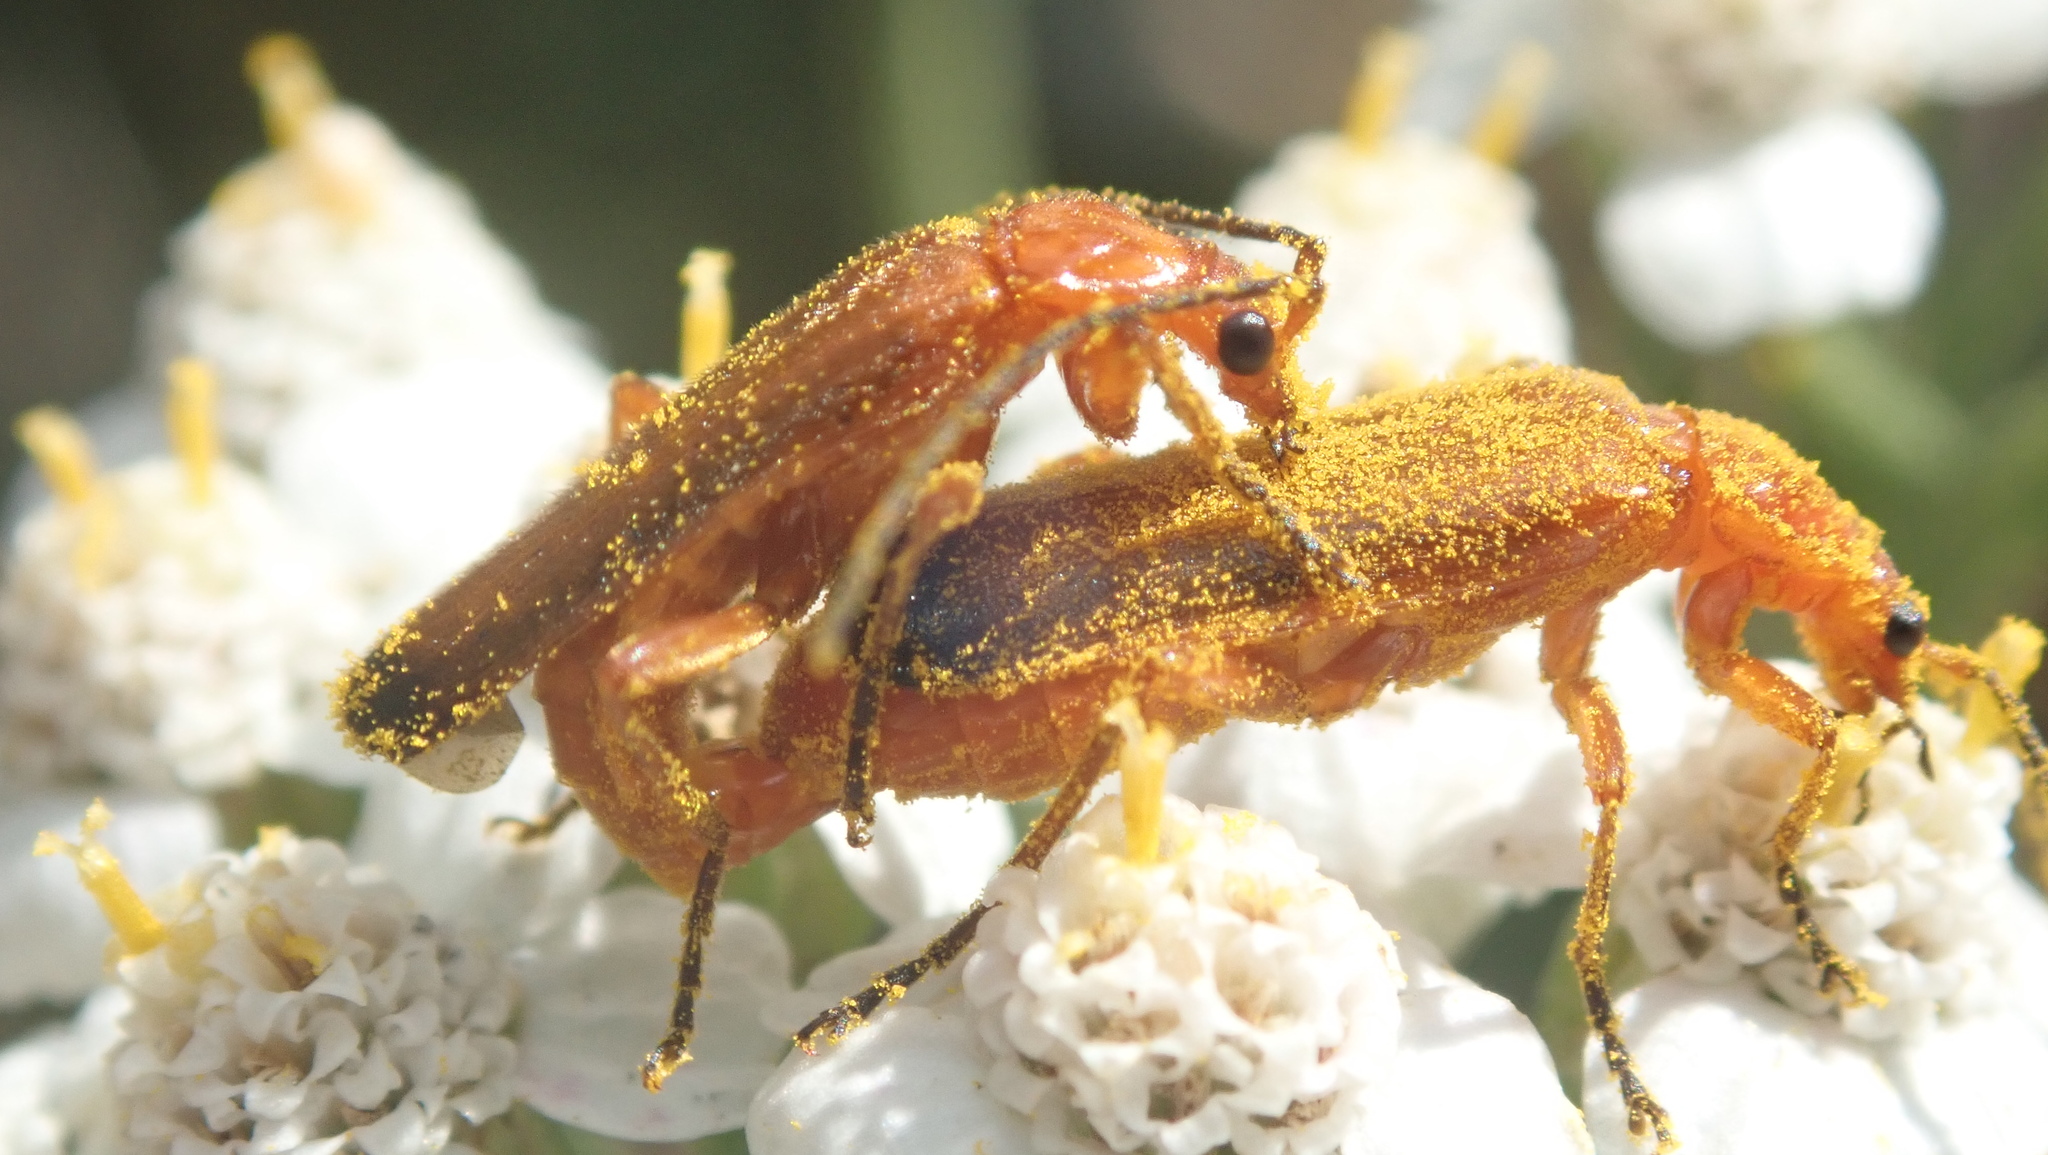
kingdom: Animalia
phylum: Arthropoda
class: Insecta
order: Coleoptera
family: Cantharidae
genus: Rhagonycha
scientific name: Rhagonycha fulva
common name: Common red soldier beetle
